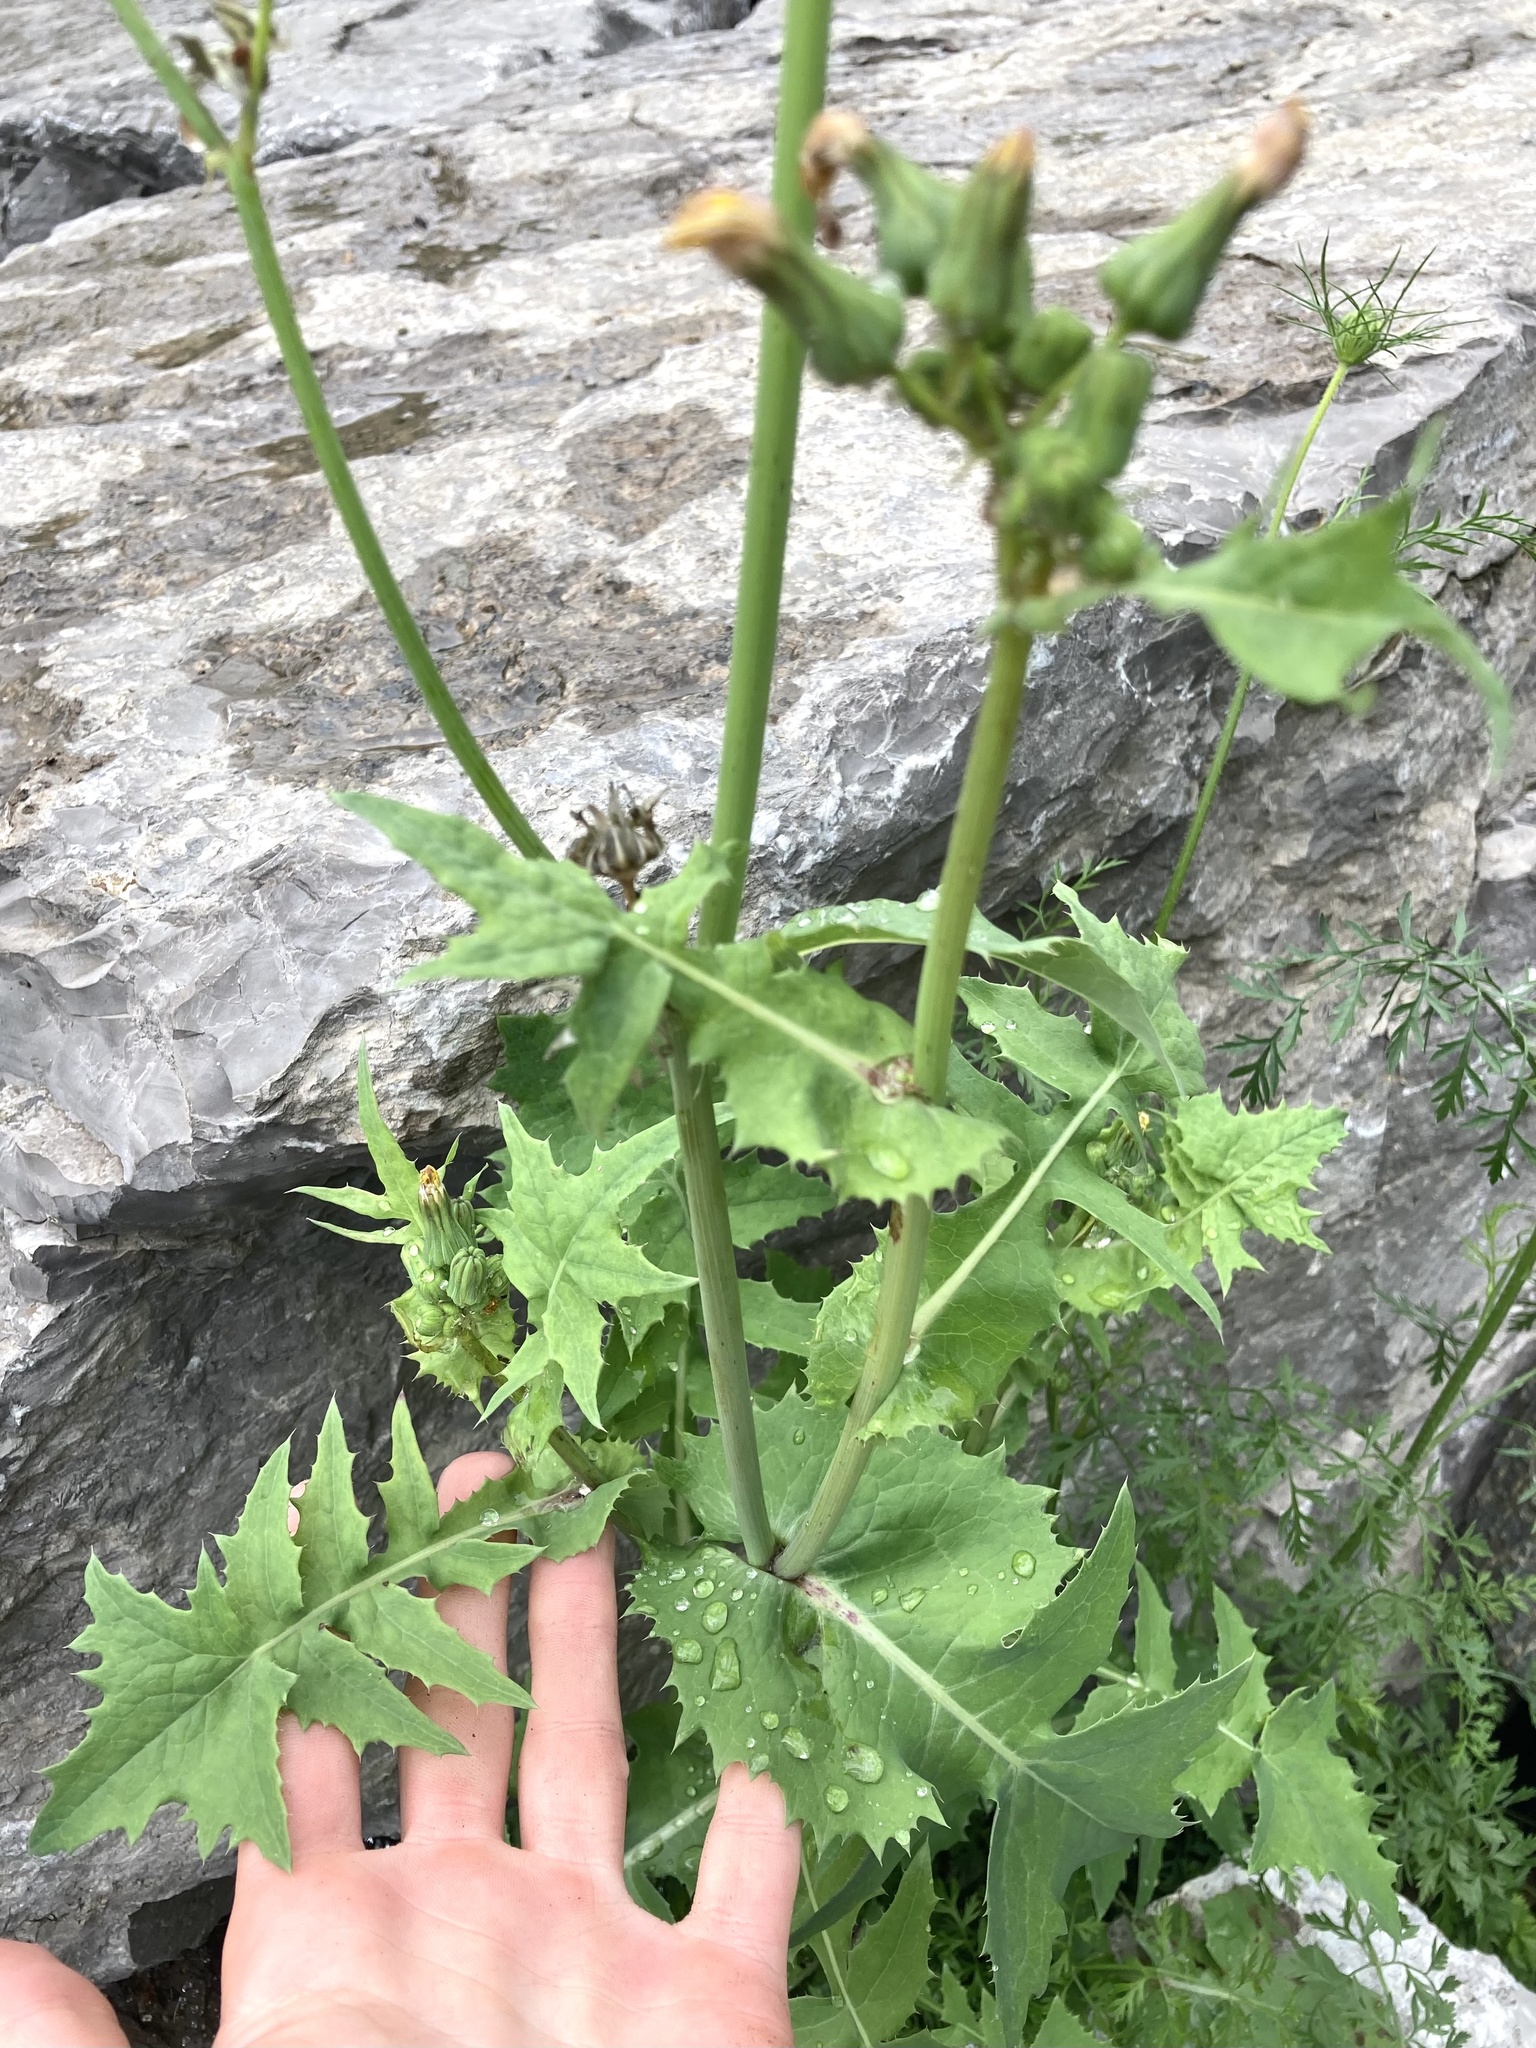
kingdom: Plantae
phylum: Tracheophyta
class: Magnoliopsida
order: Asterales
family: Asteraceae
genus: Sonchus
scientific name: Sonchus oleraceus
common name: Common sowthistle
